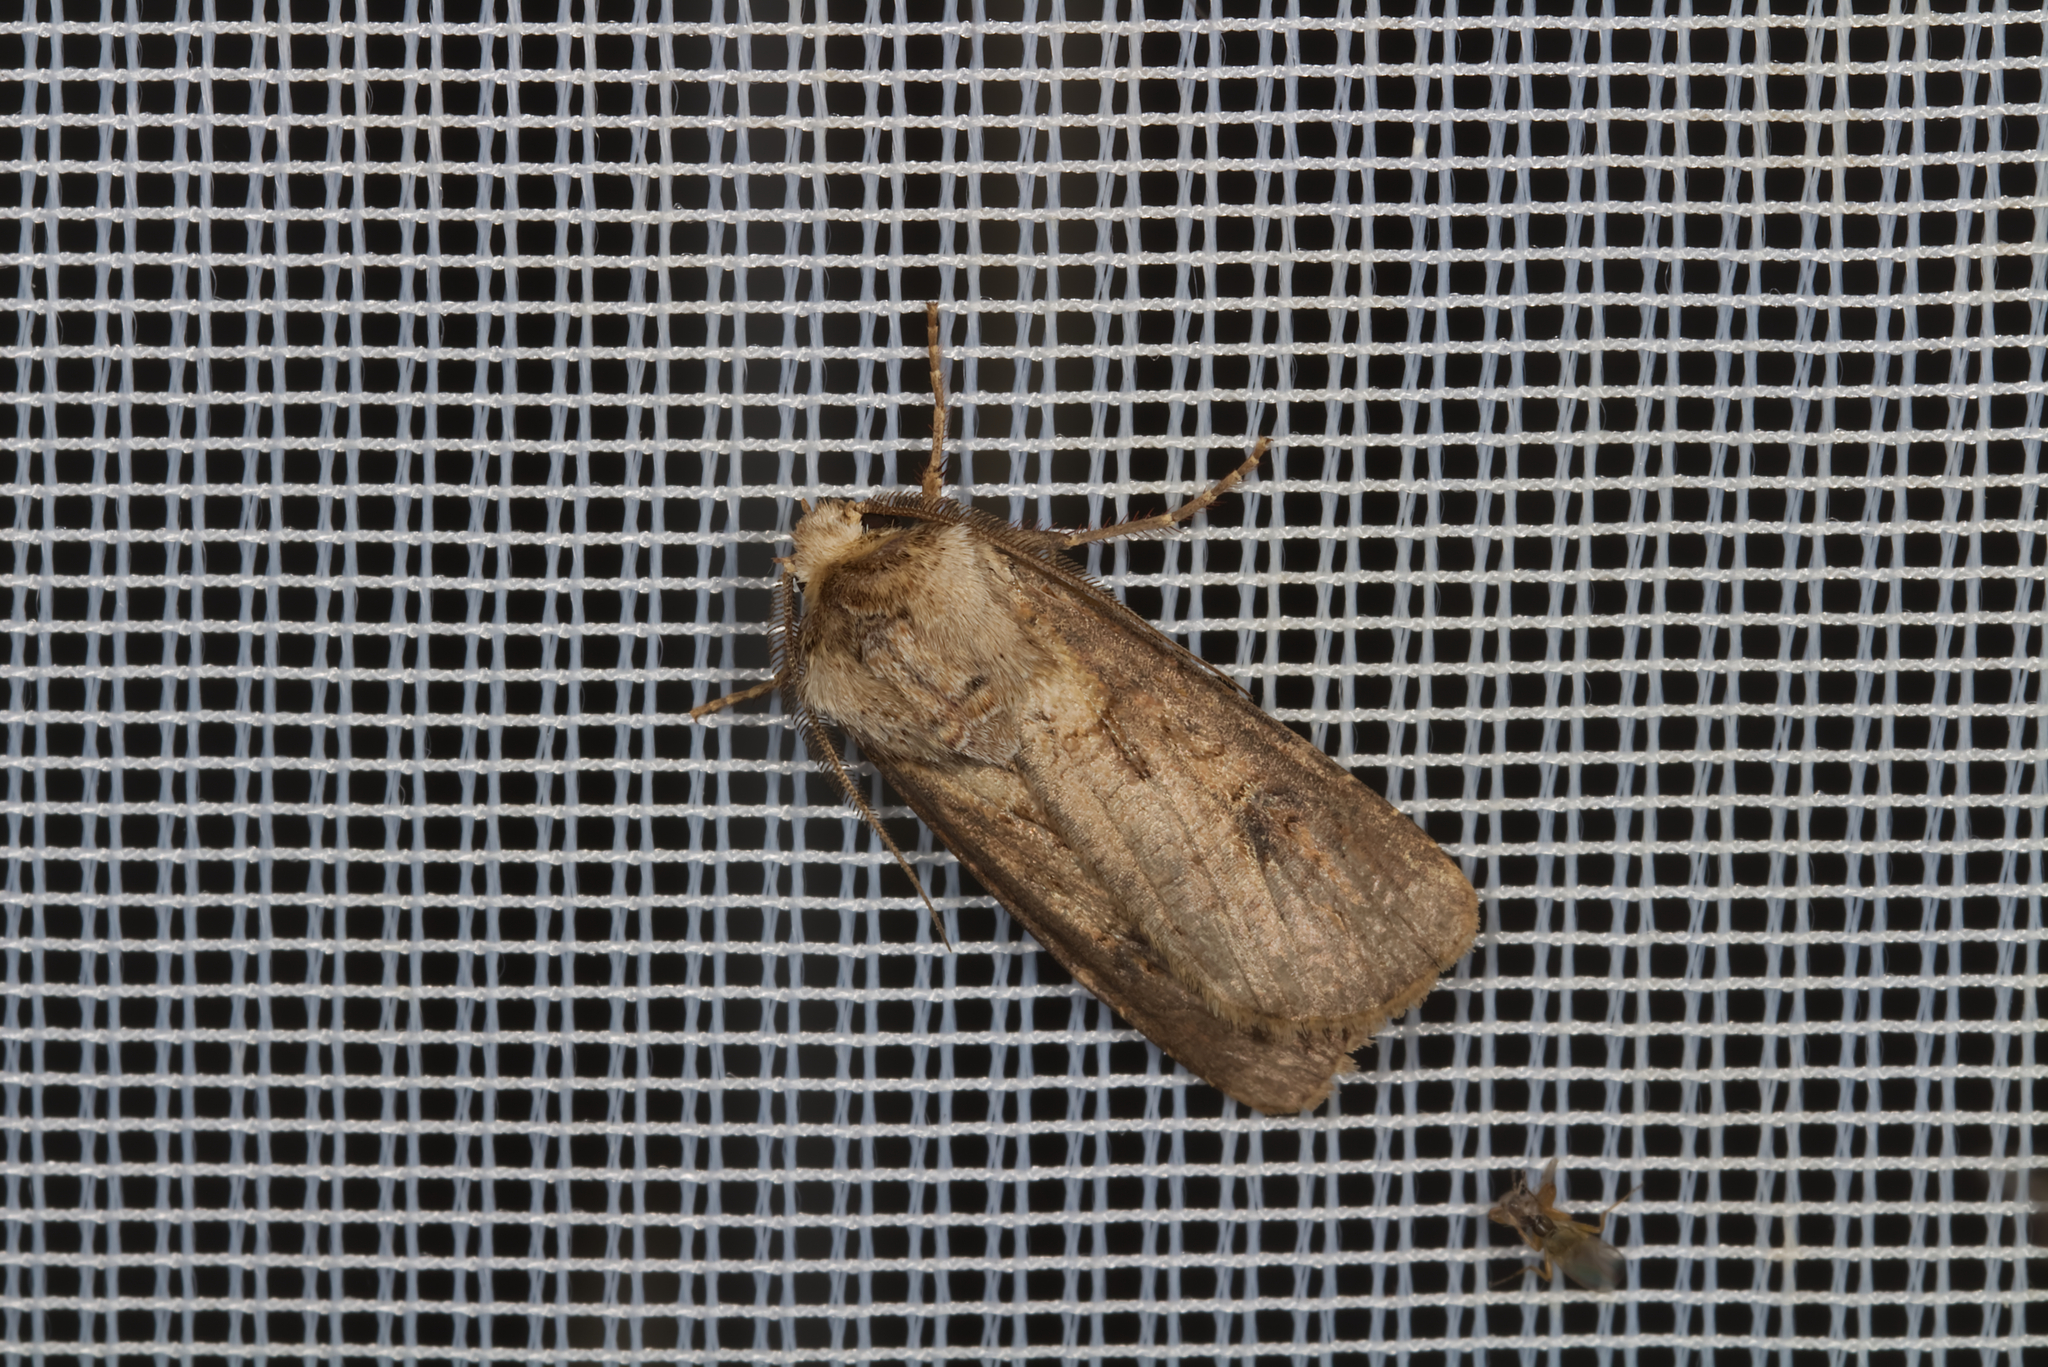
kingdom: Animalia
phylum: Arthropoda
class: Insecta
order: Lepidoptera
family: Noctuidae
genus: Agrotis
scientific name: Agrotis clavis
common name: Heart and club
